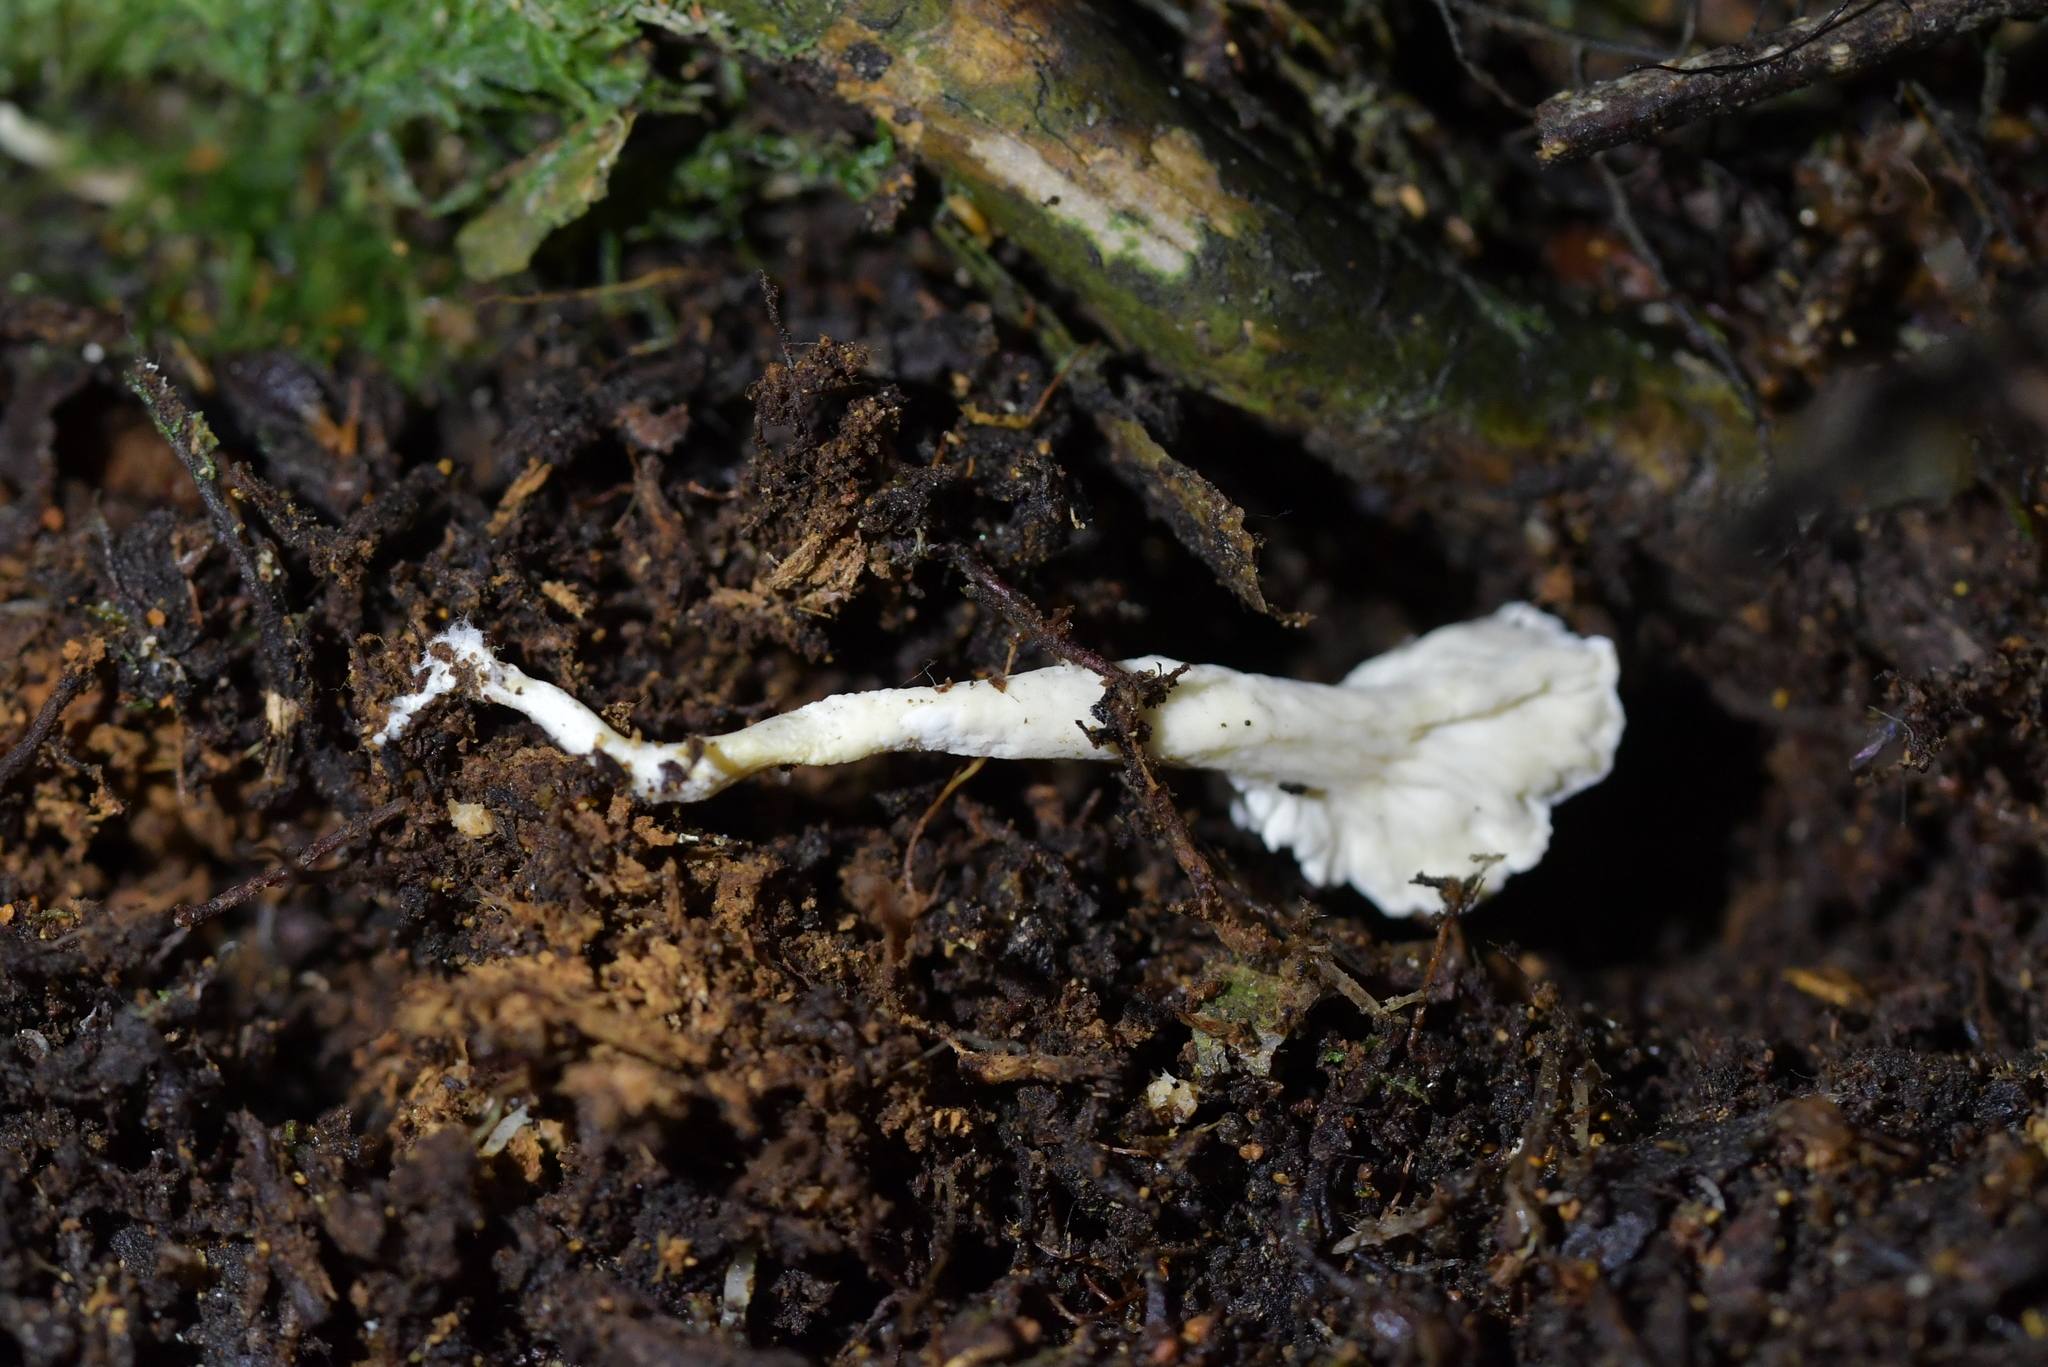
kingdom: Fungi
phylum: Basidiomycota
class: Agaricomycetes
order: Amylocorticiales
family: Amylocorticiaceae
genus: Podoserpula
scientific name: Podoserpula
